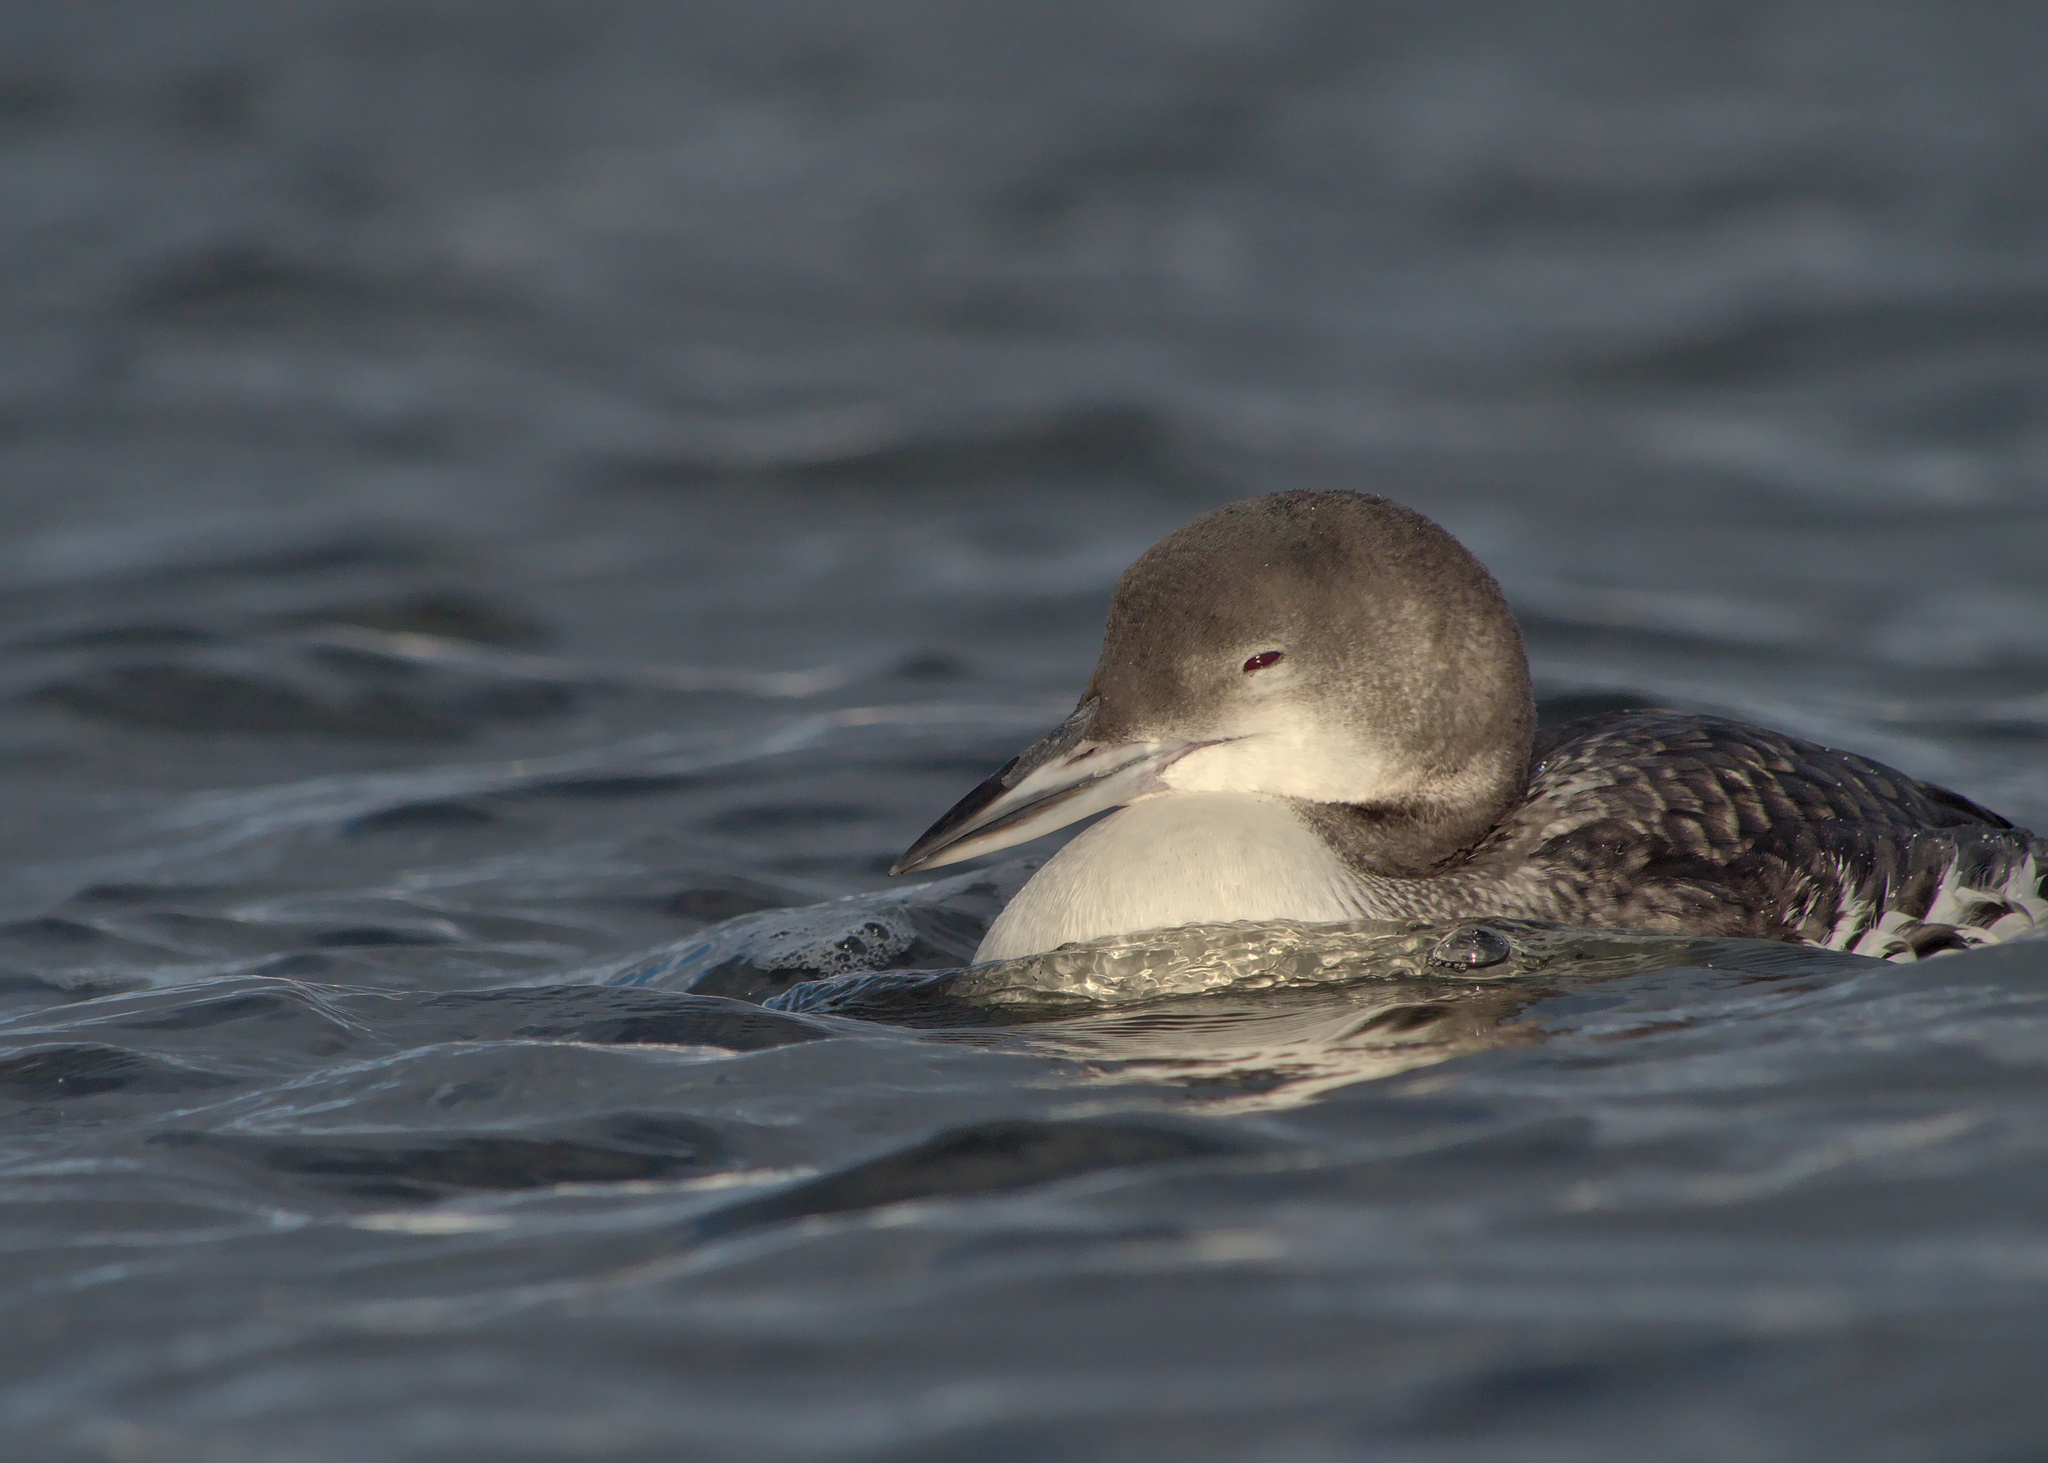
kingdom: Animalia
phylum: Chordata
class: Aves
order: Gaviiformes
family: Gaviidae
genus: Gavia
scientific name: Gavia immer
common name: Common loon
